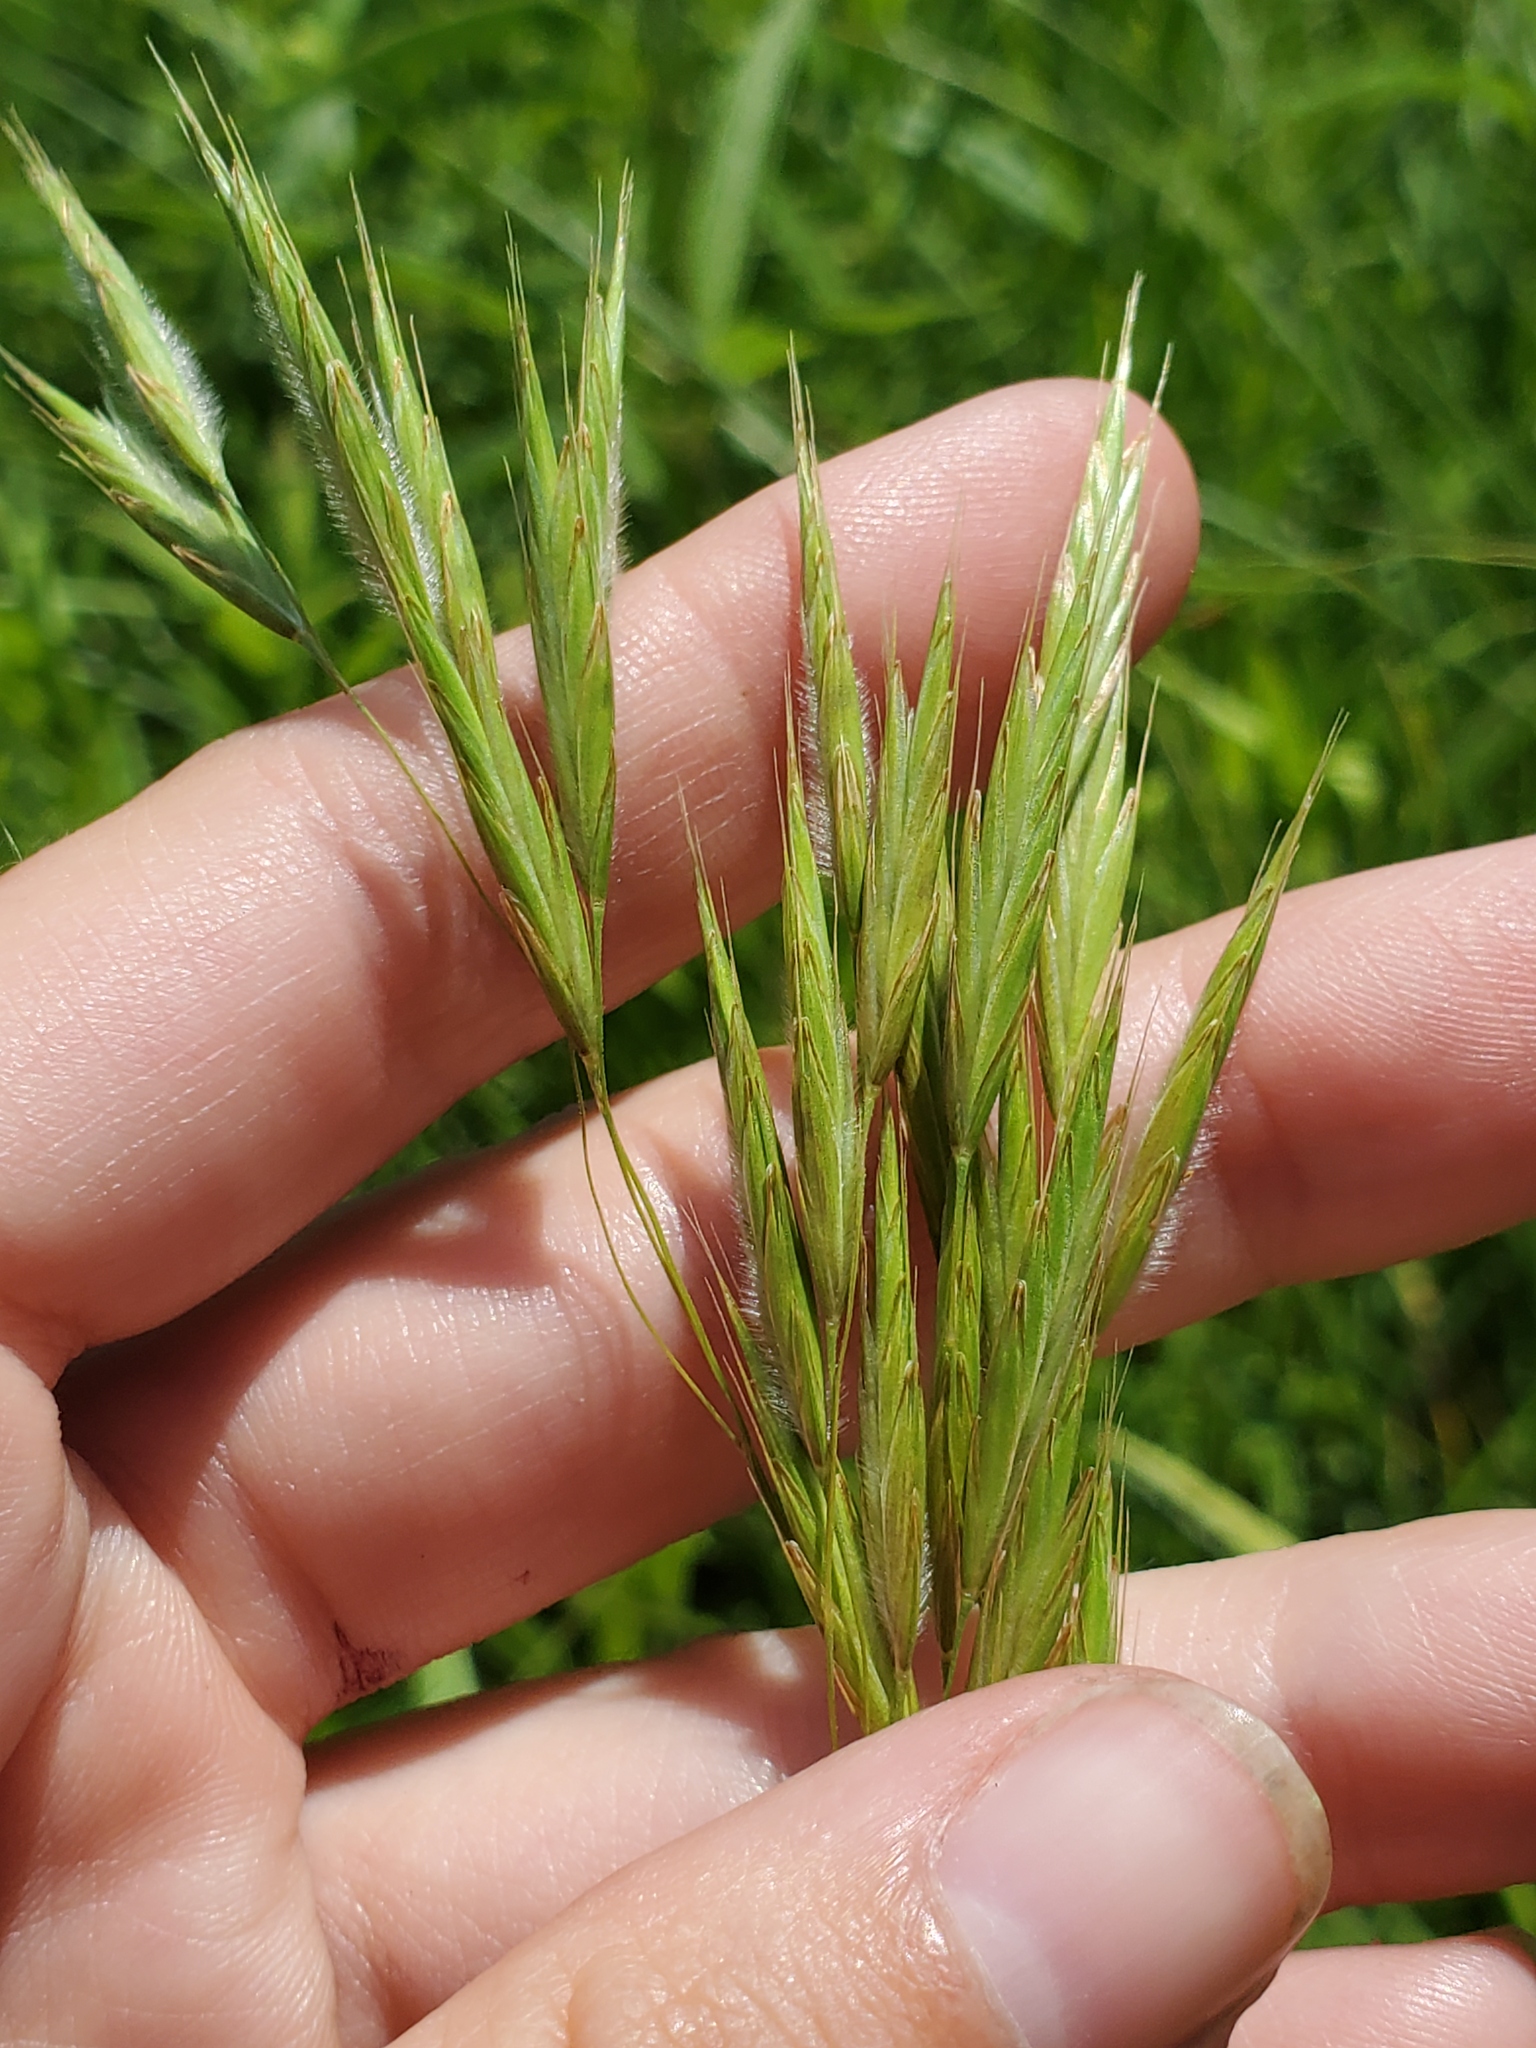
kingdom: Plantae
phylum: Tracheophyta
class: Liliopsida
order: Poales
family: Poaceae
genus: Bromus
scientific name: Bromus ciliatus
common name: Fringe brome
